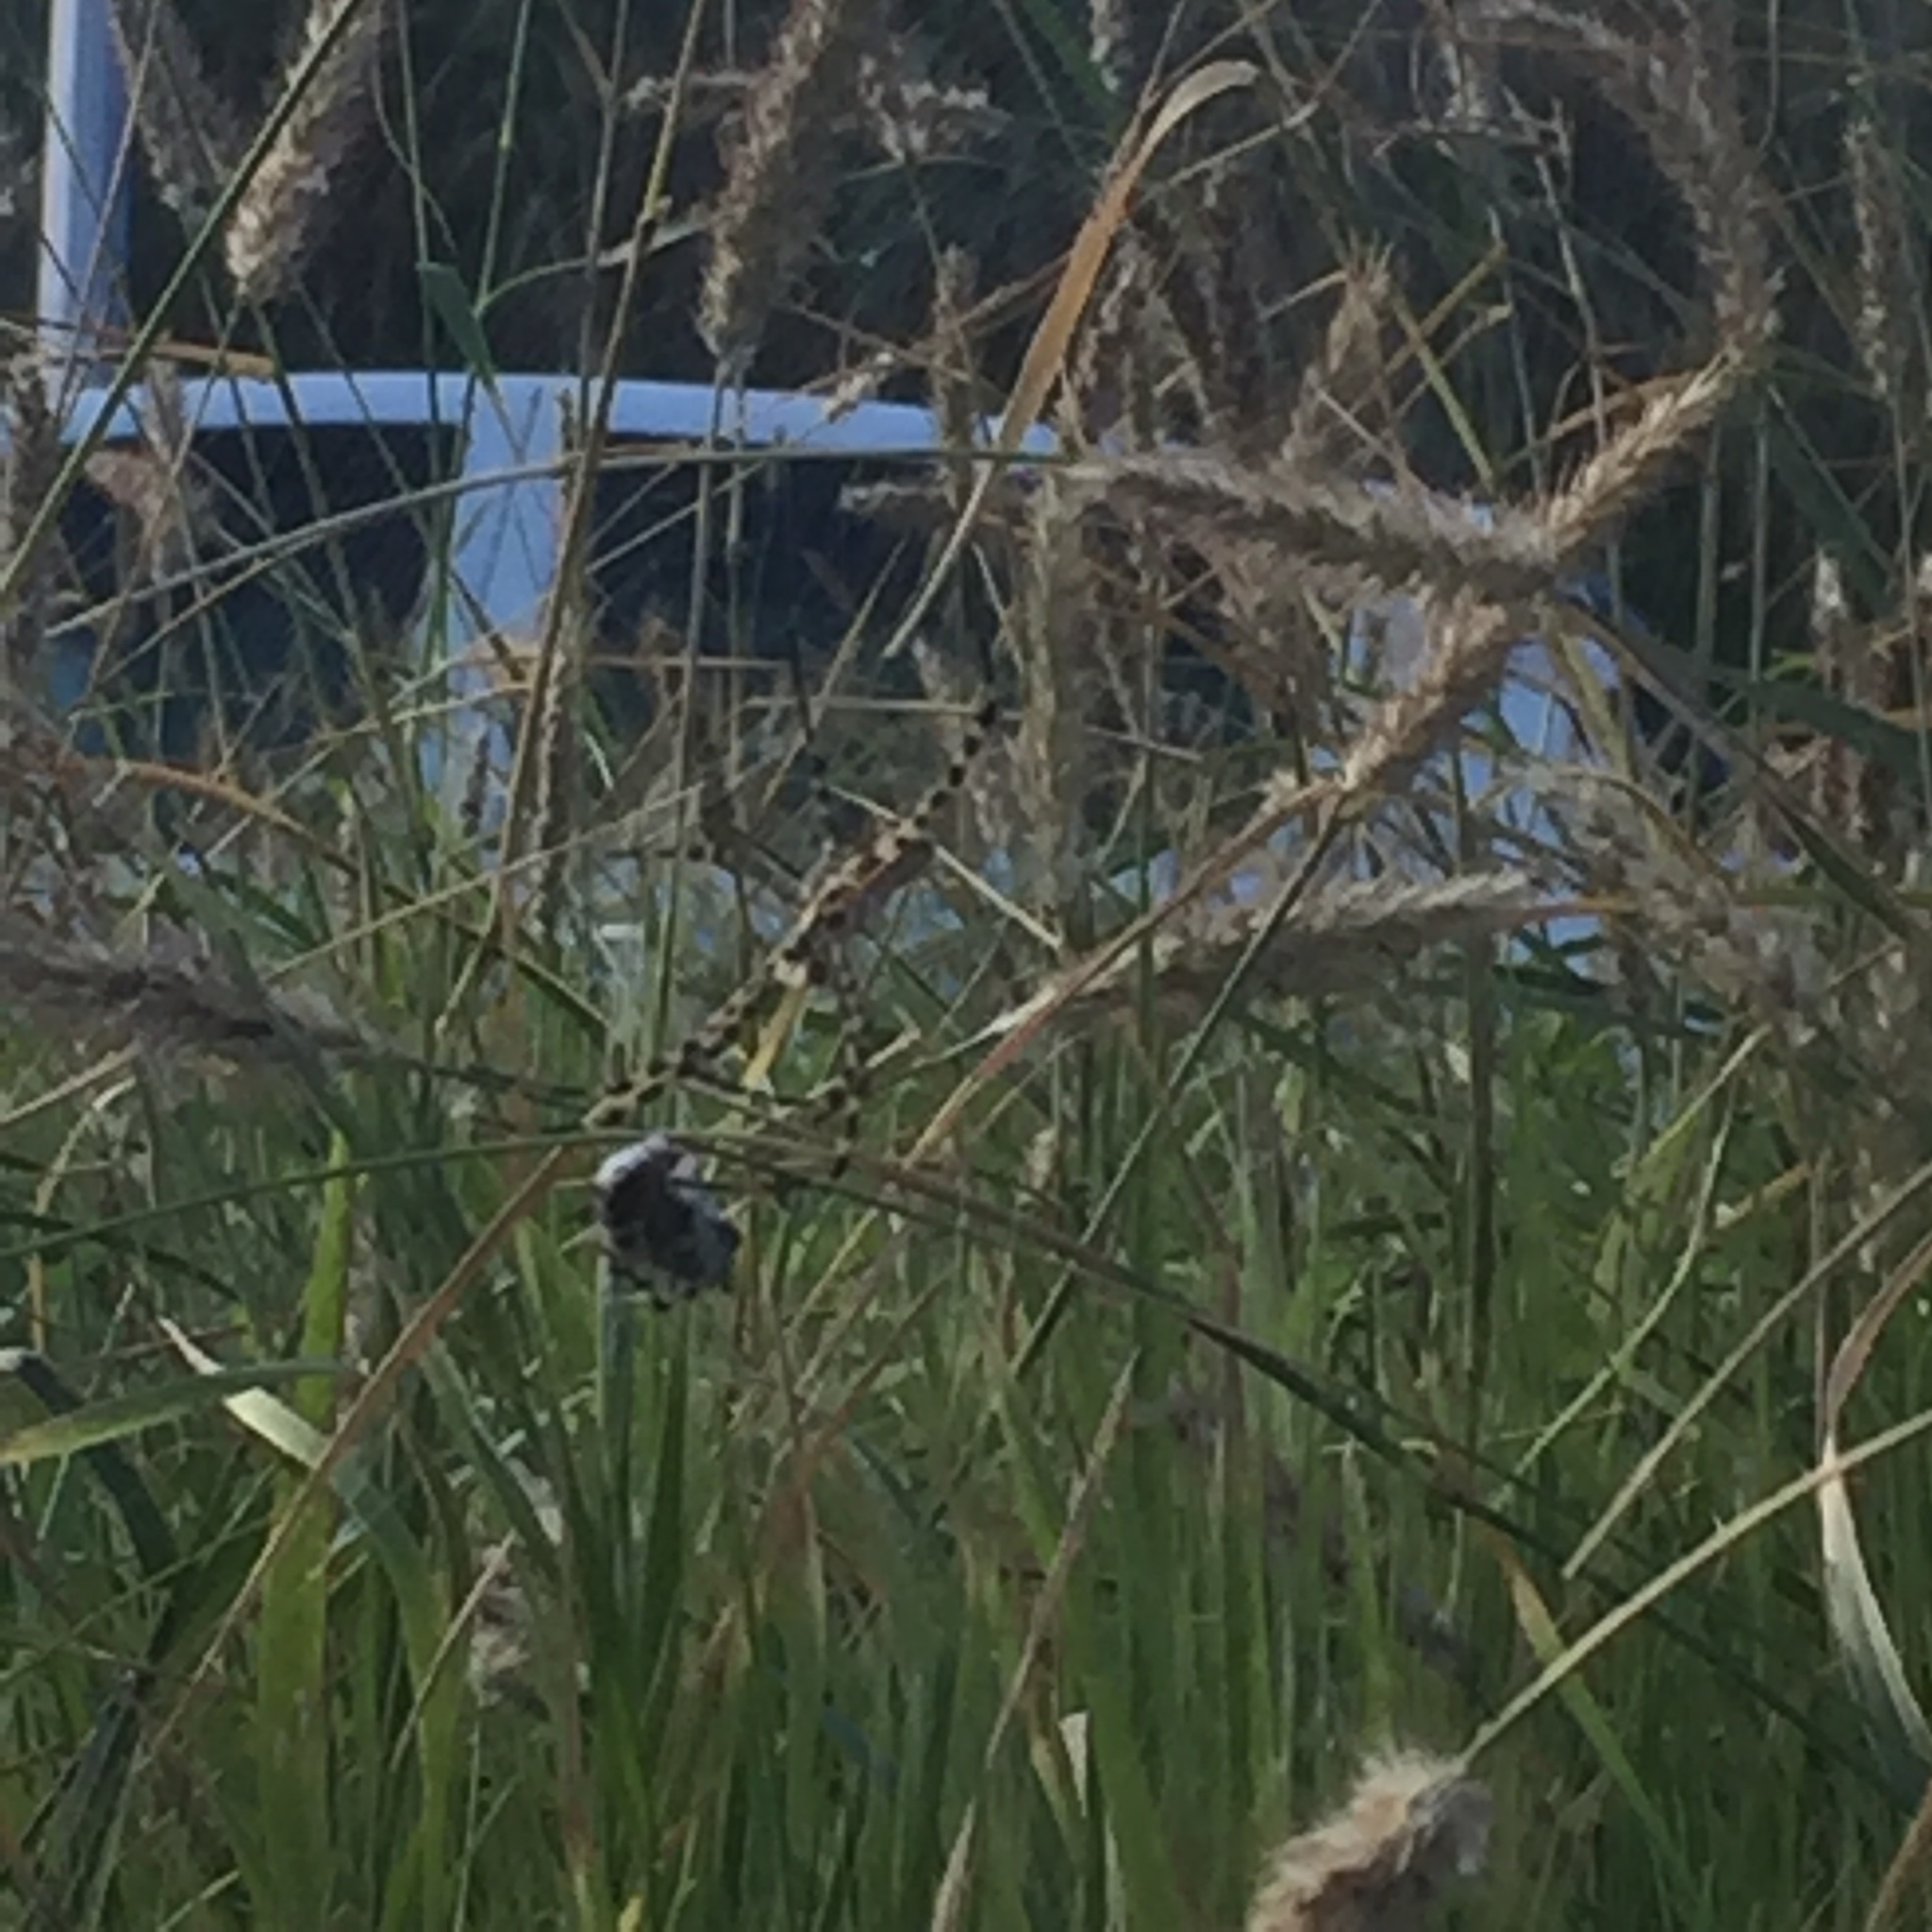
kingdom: Animalia
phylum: Arthropoda
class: Arachnida
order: Araneae
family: Araneidae
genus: Argiope
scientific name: Argiope trifasciata
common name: Banded garden spider
